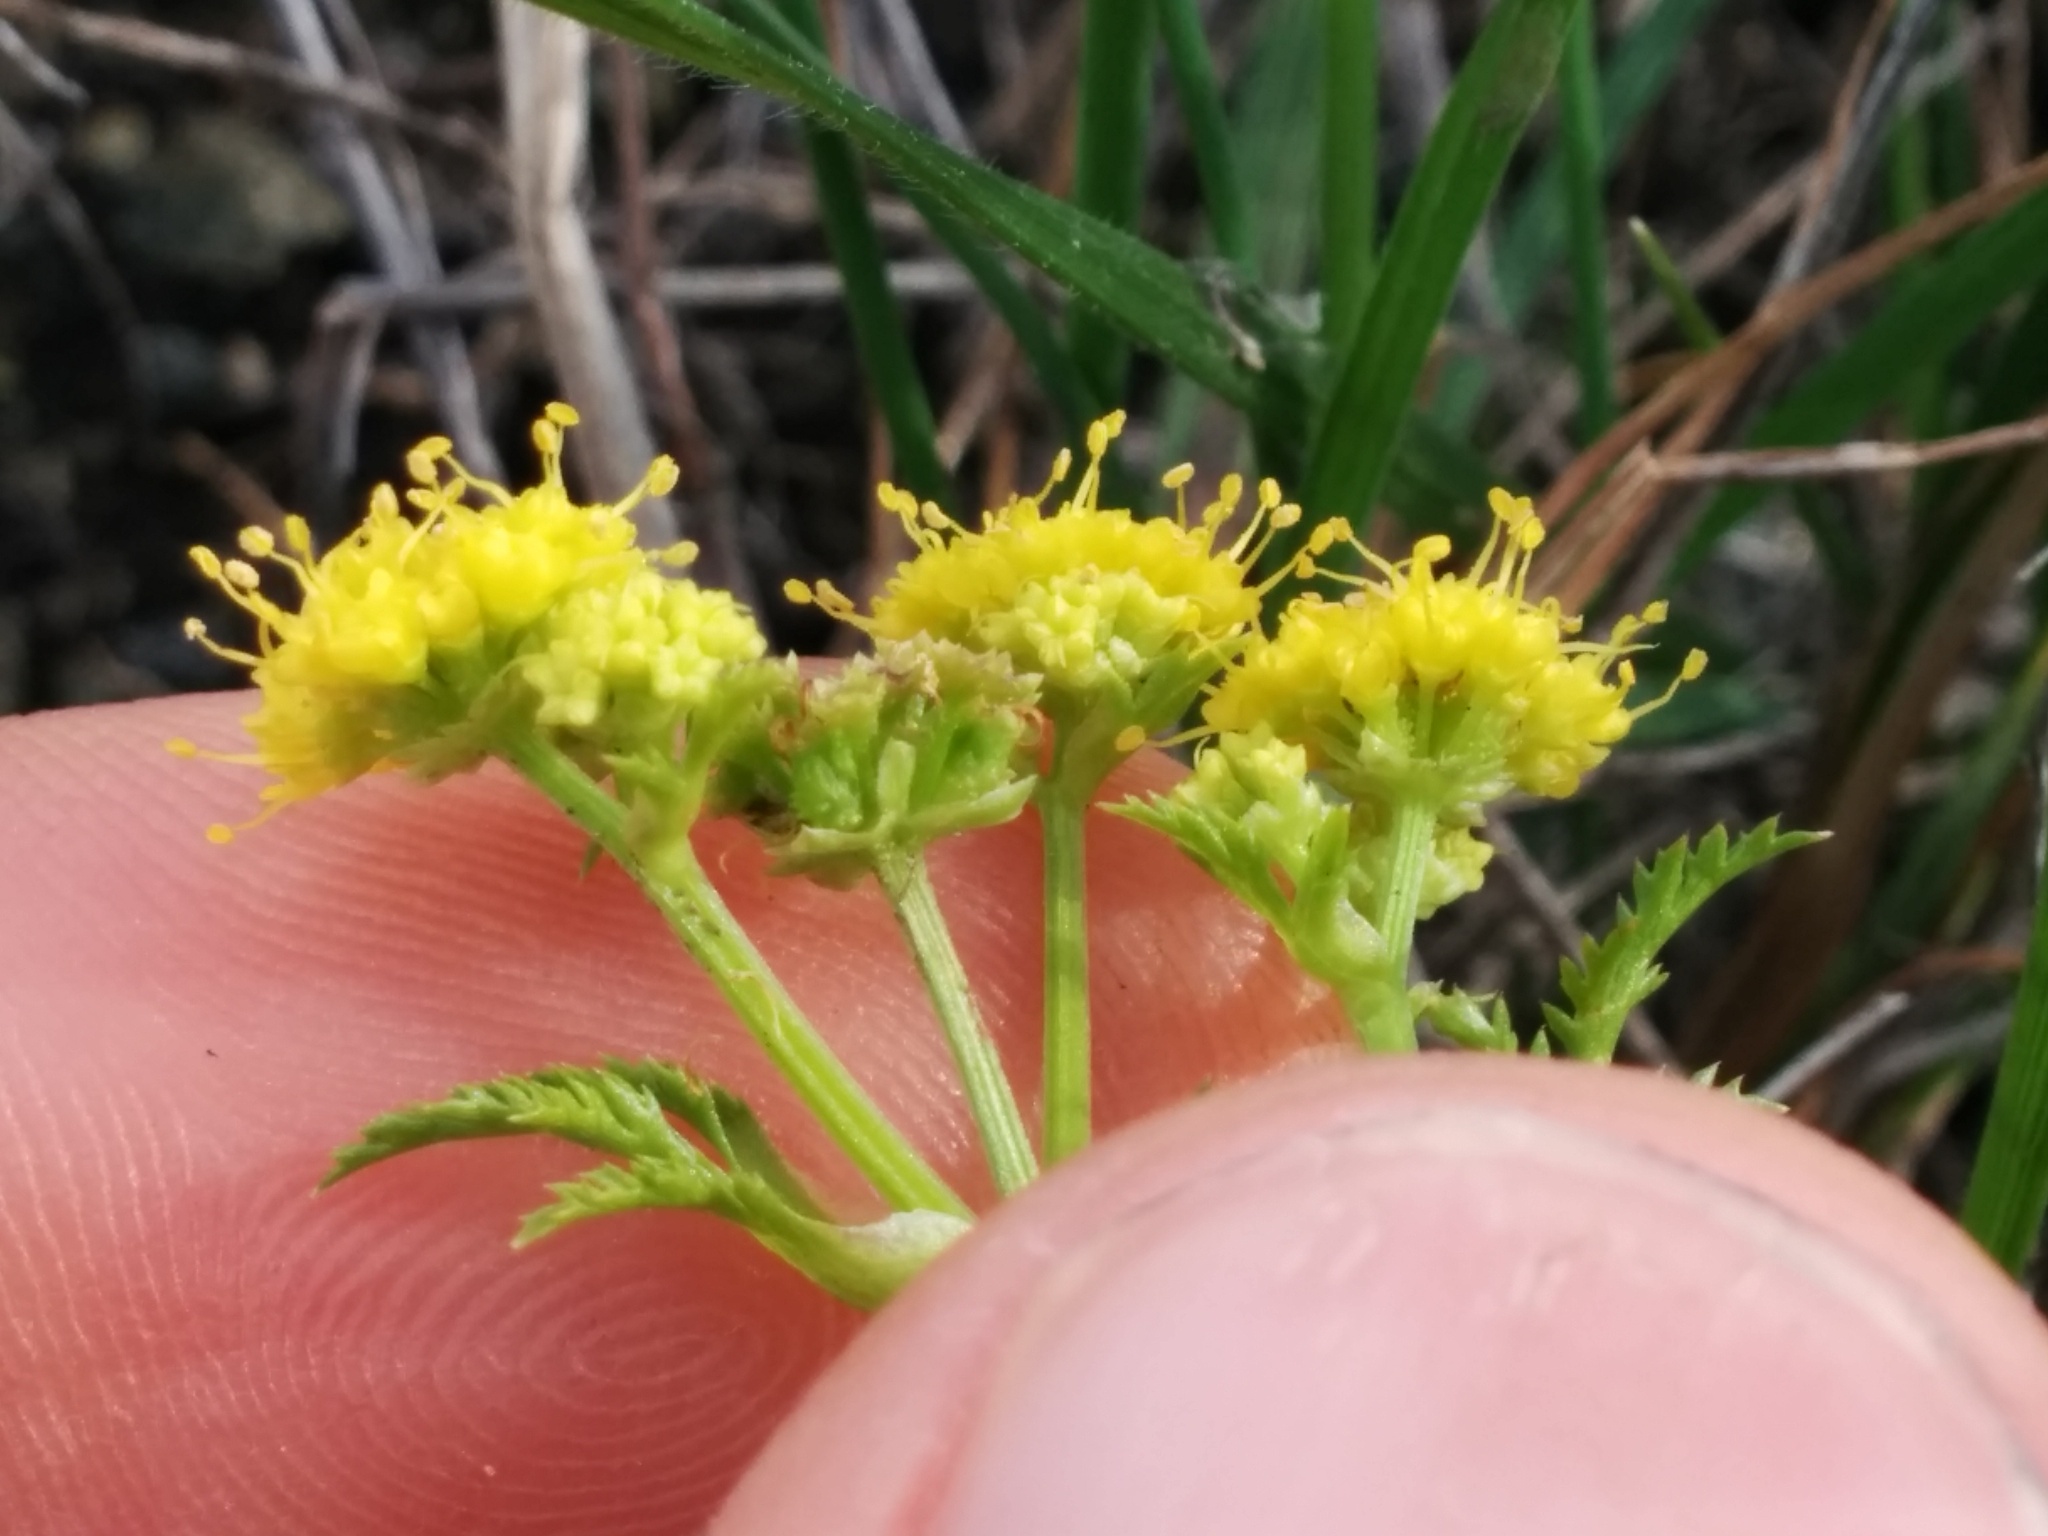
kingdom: Plantae
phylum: Tracheophyta
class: Magnoliopsida
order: Apiales
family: Apiaceae
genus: Sanicula
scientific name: Sanicula tuberosa
